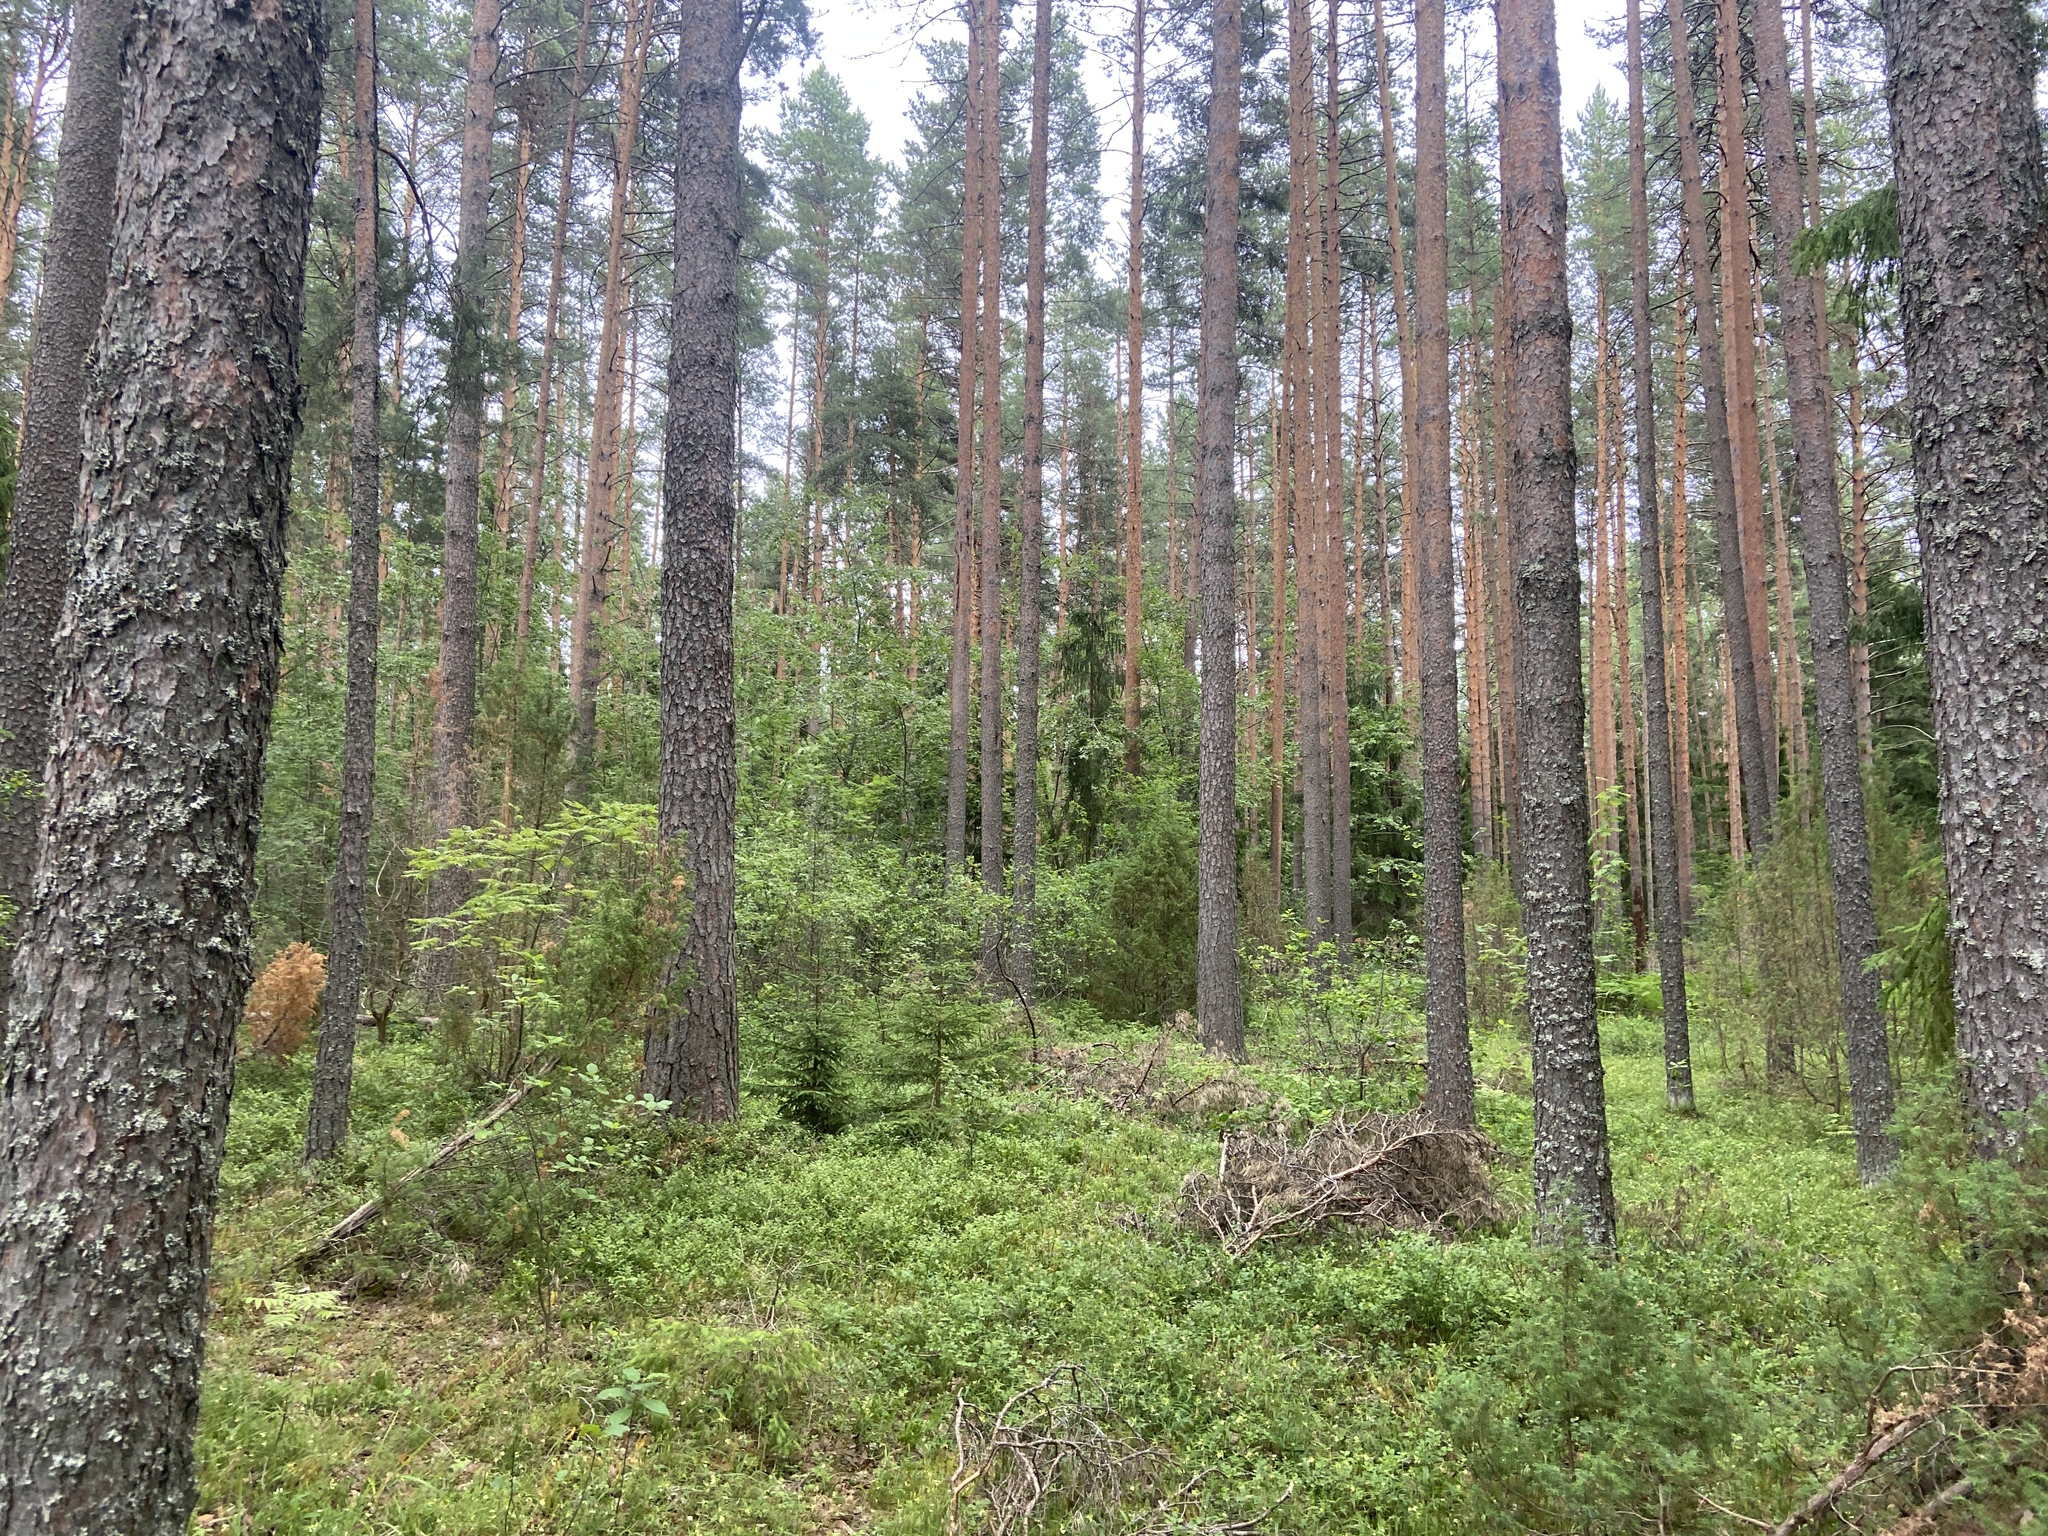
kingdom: Plantae
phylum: Tracheophyta
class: Pinopsida
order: Pinales
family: Pinaceae
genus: Pinus
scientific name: Pinus sylvestris
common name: Scots pine
